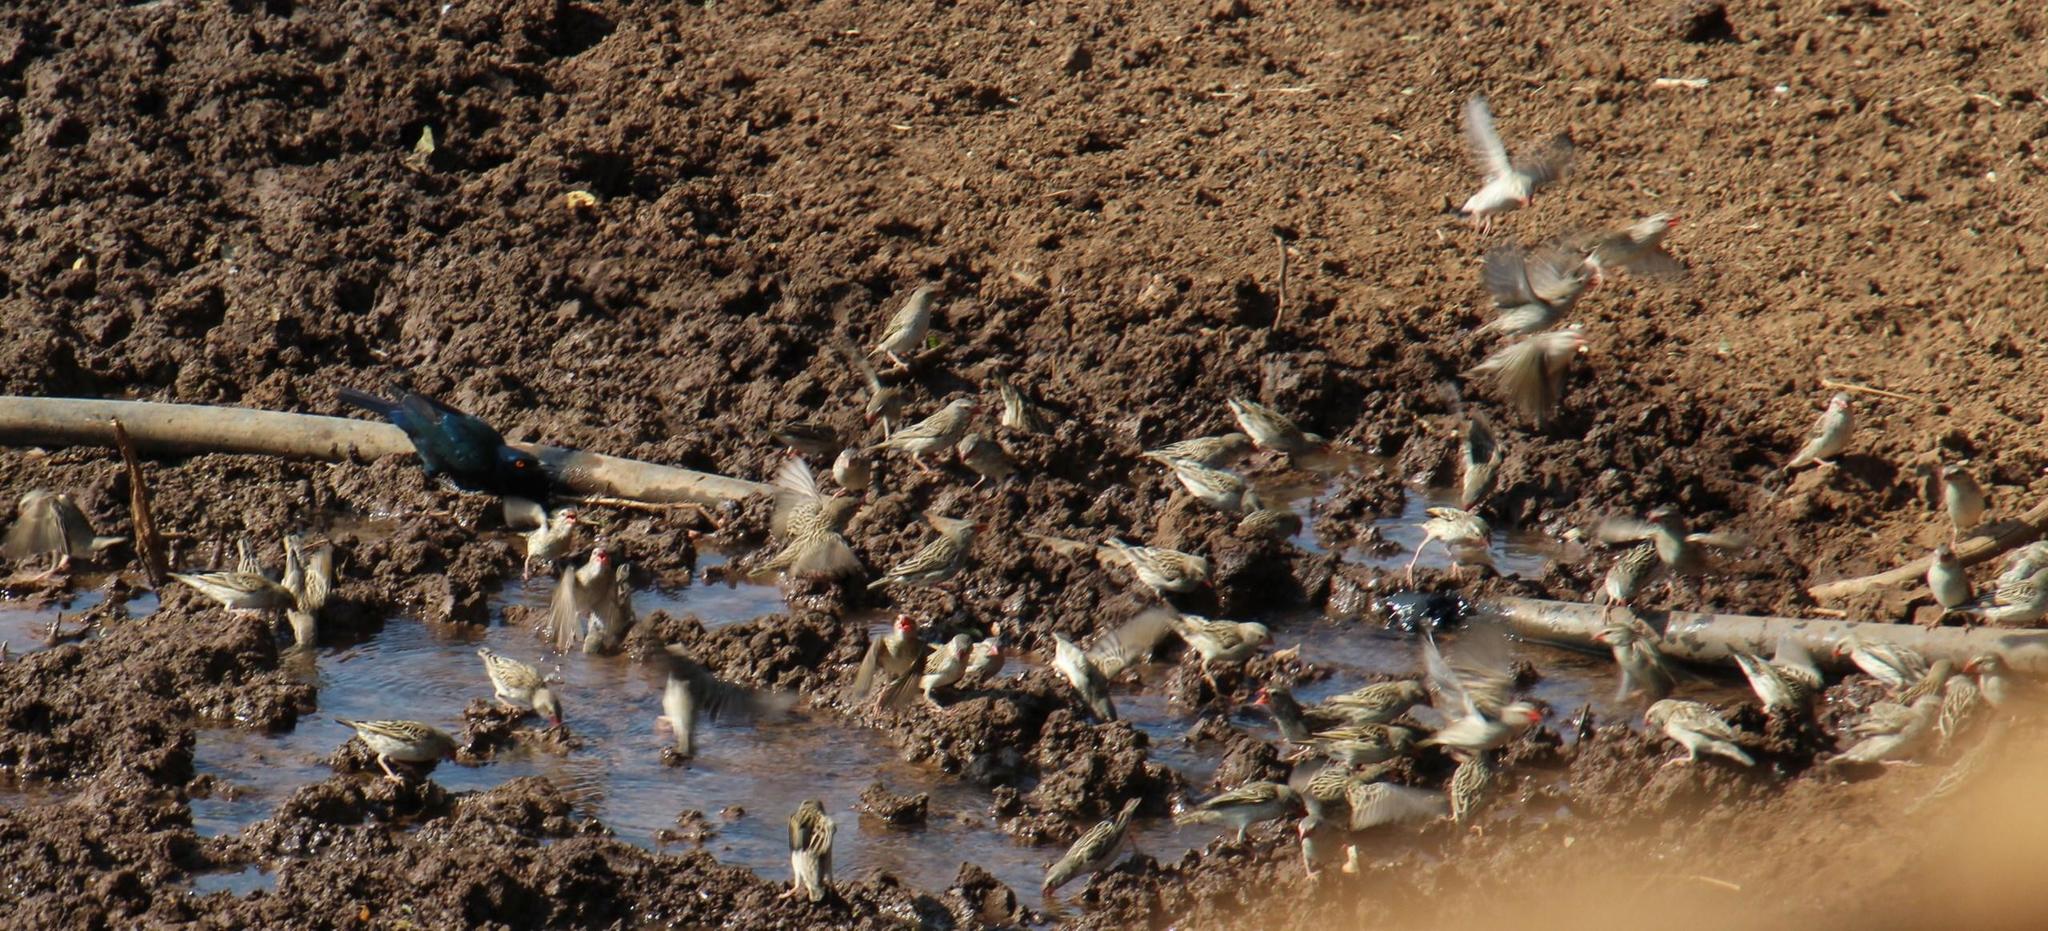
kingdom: Animalia
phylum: Chordata
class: Aves
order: Passeriformes
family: Ploceidae
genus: Quelea
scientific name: Quelea quelea
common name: Red-billed quelea
